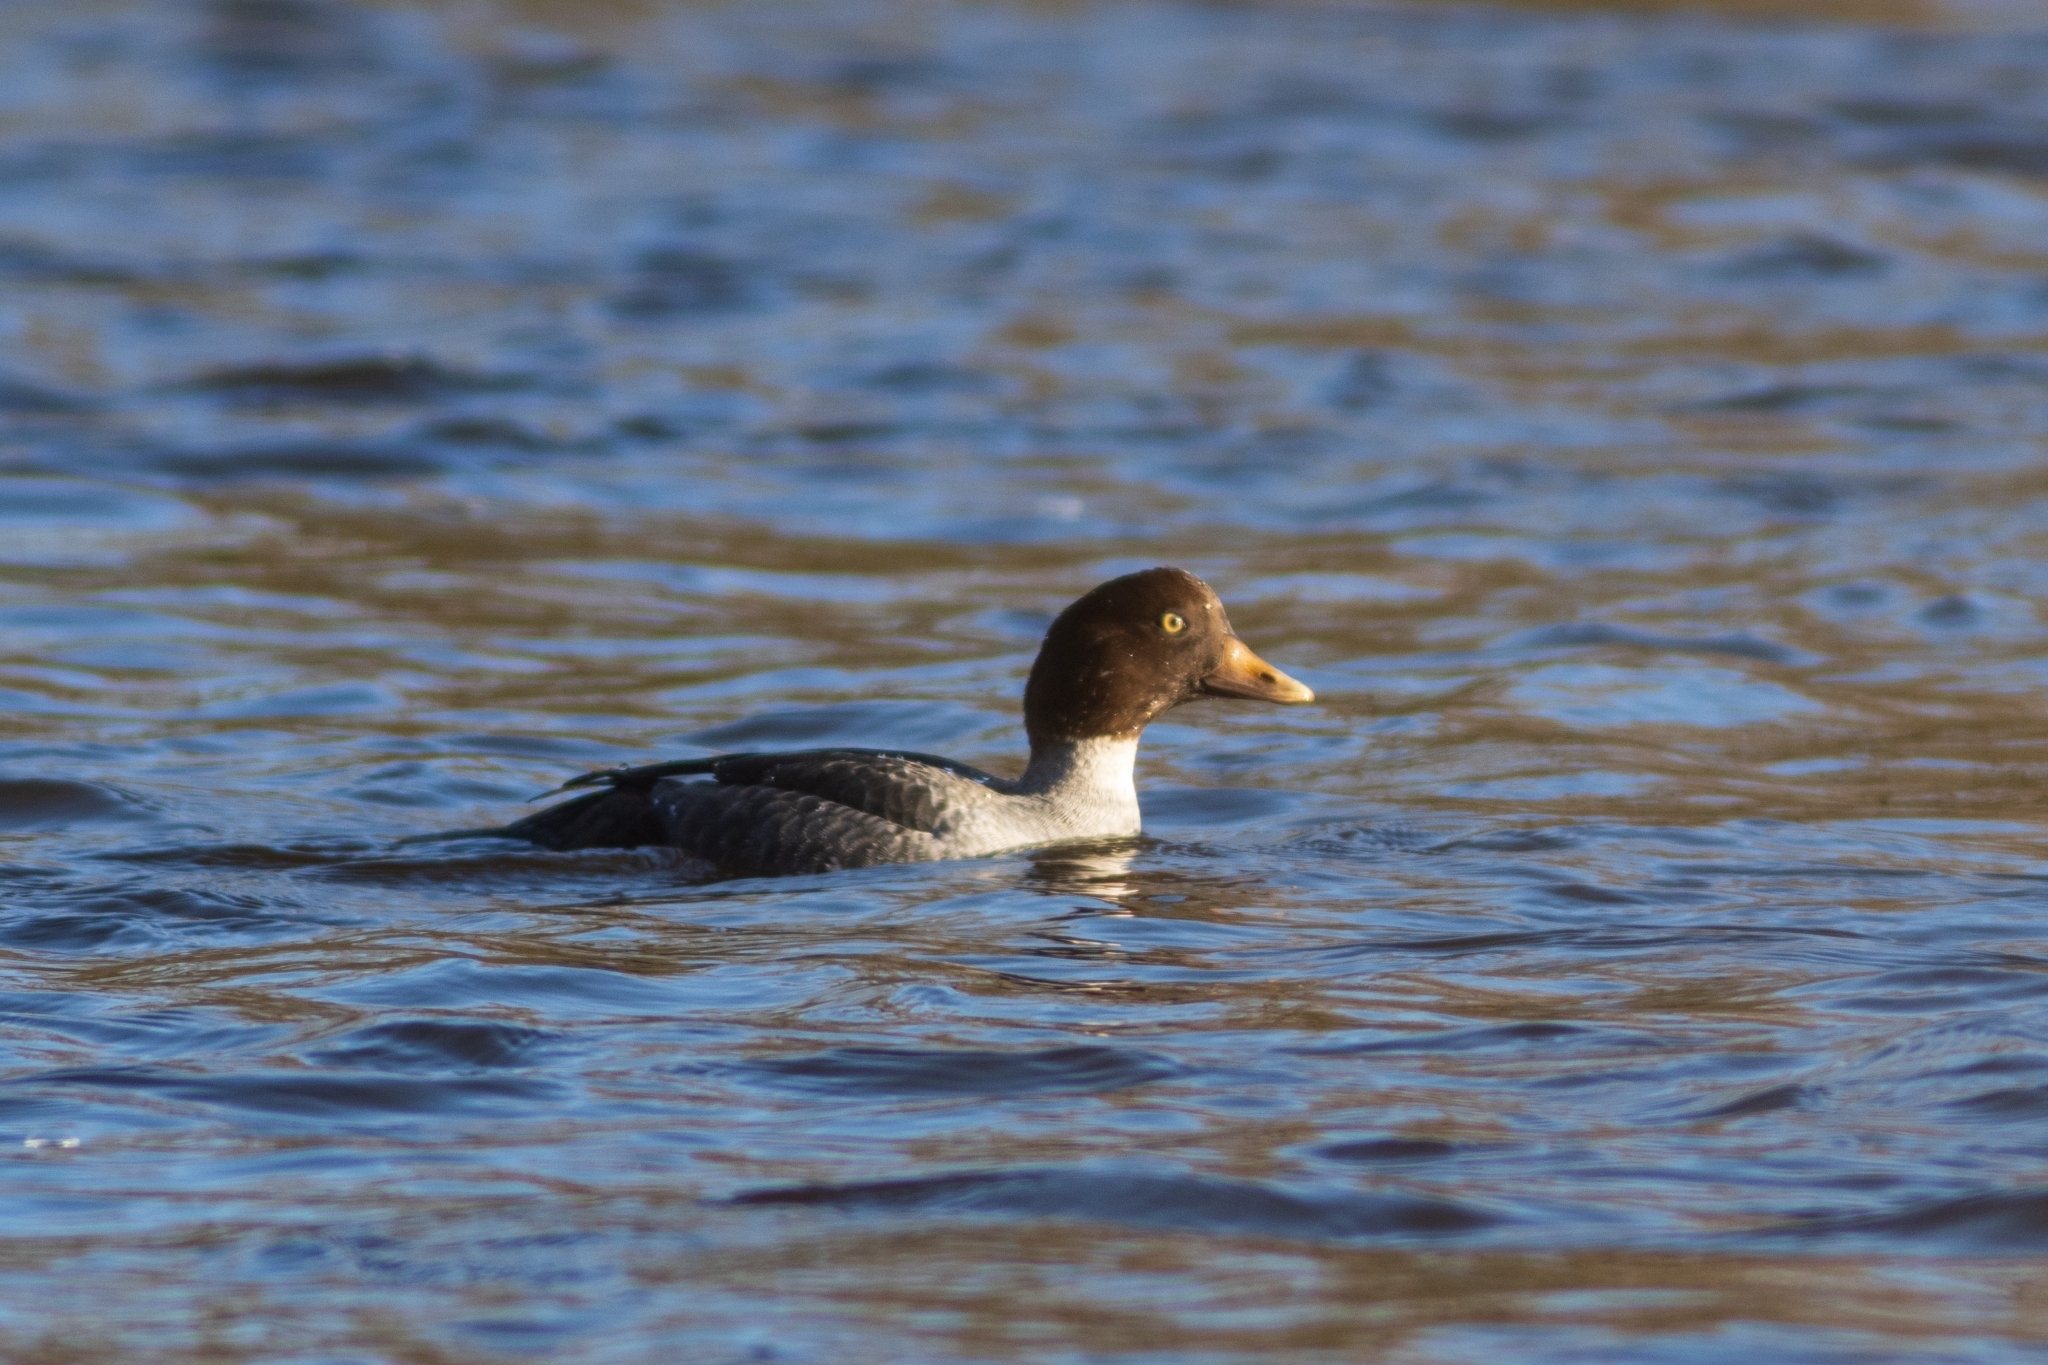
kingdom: Animalia
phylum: Chordata
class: Aves
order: Anseriformes
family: Anatidae
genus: Bucephala
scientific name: Bucephala islandica
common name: Barrow's goldeneye
